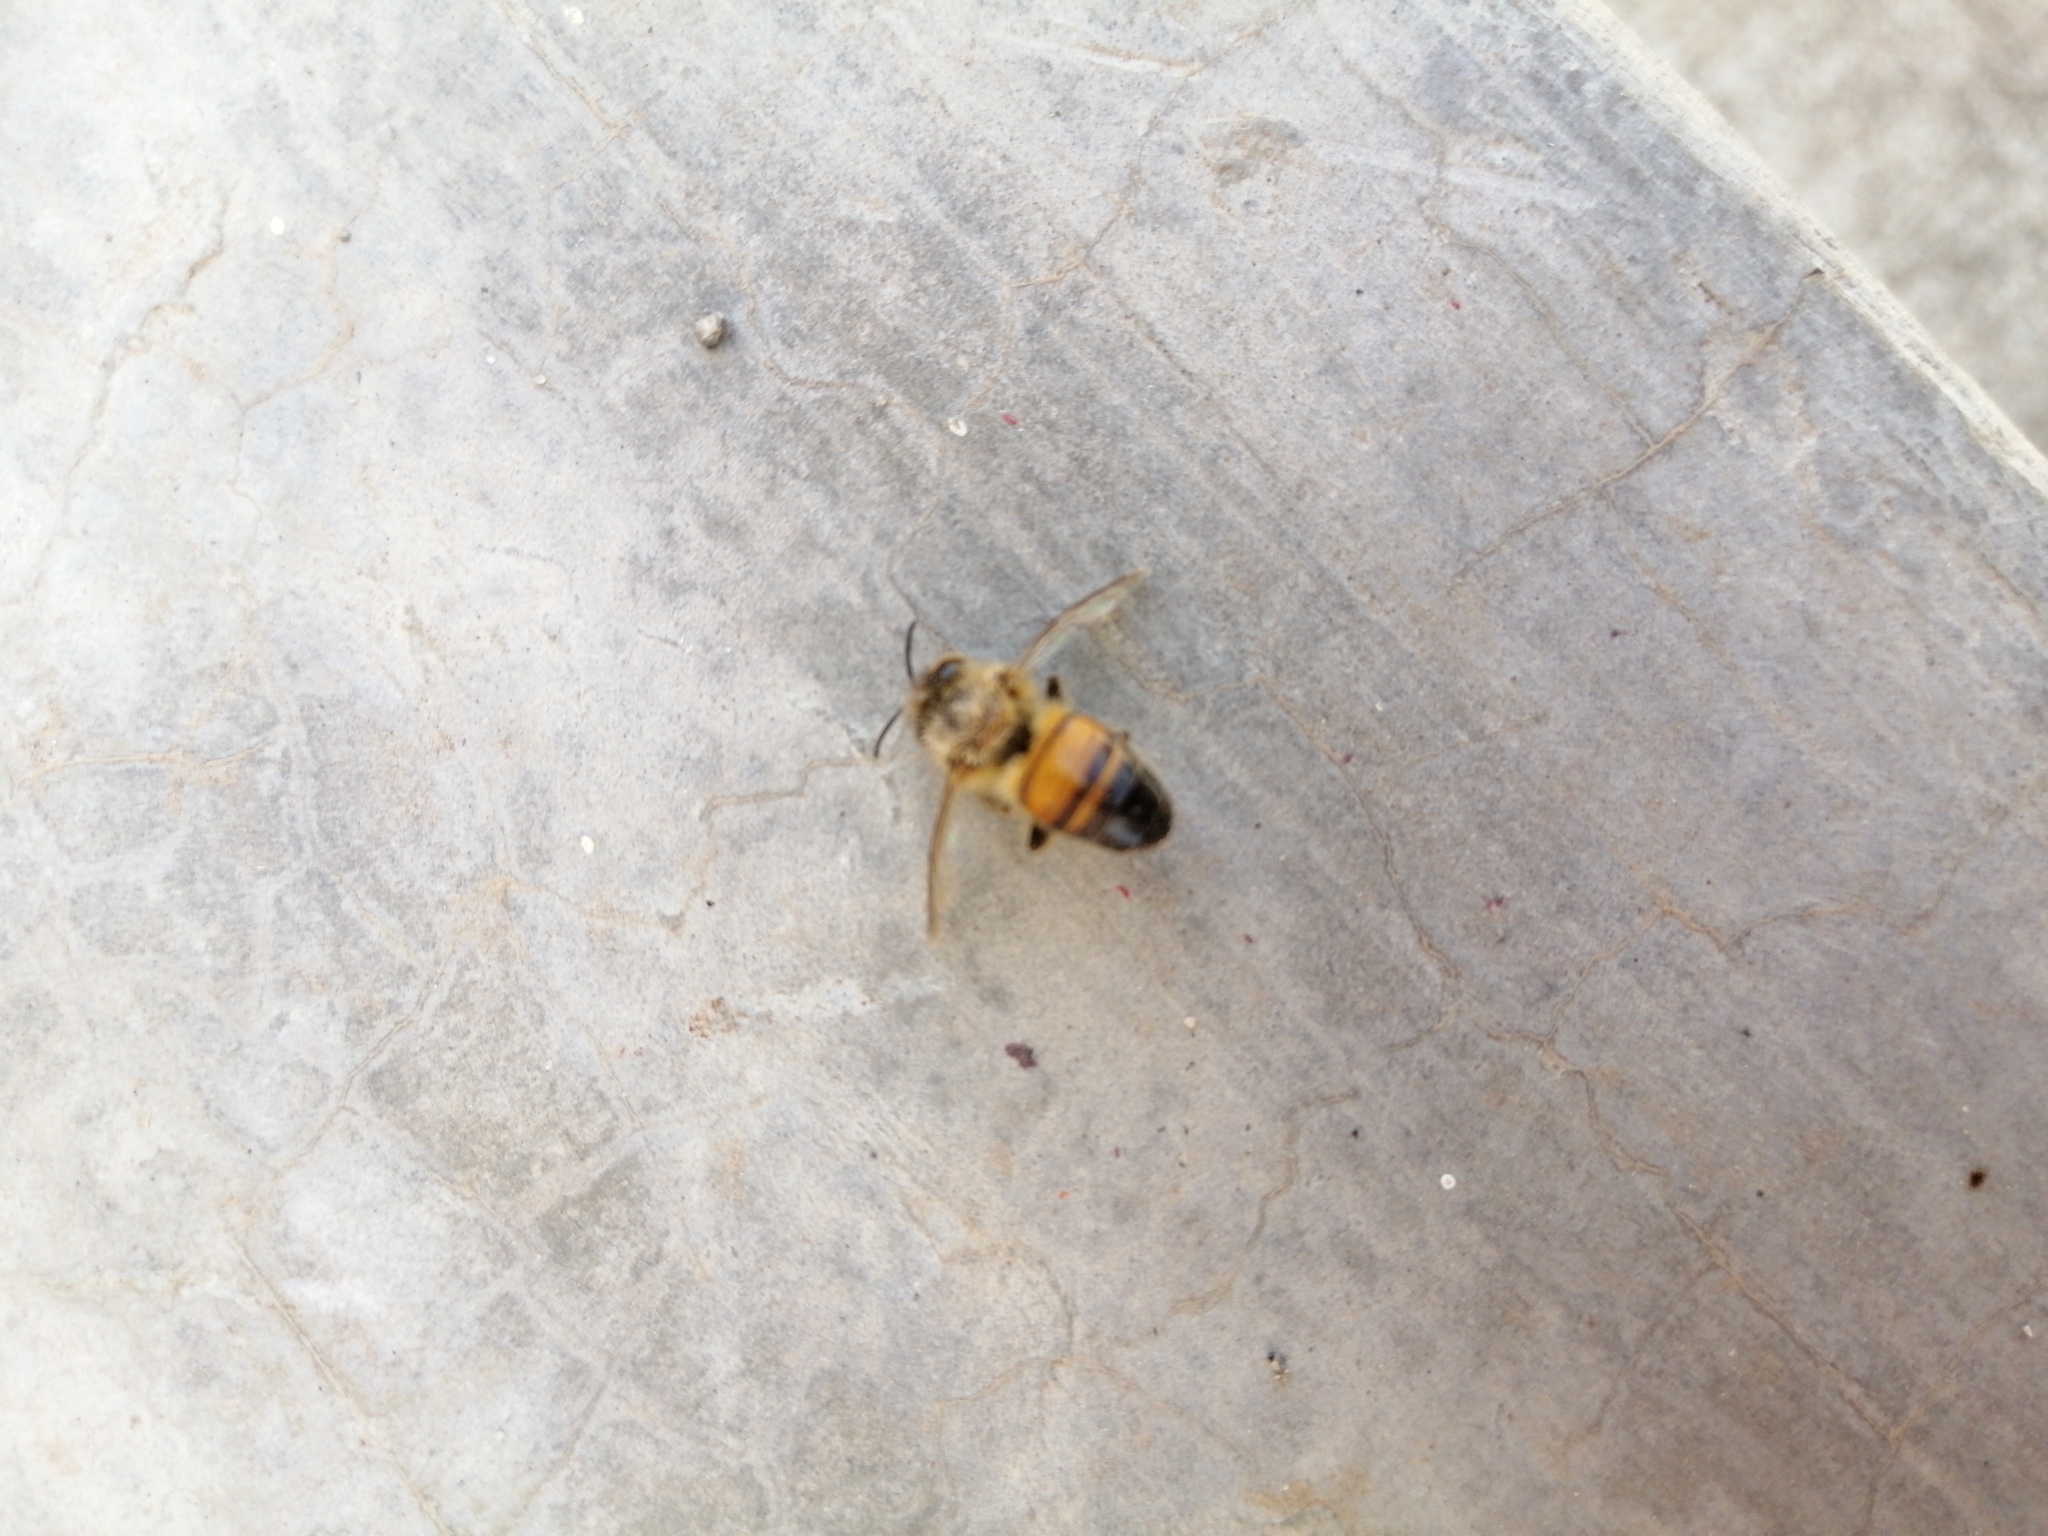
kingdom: Animalia
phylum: Arthropoda
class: Insecta
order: Hymenoptera
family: Apidae
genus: Apis
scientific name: Apis mellifera
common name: Honey bee
